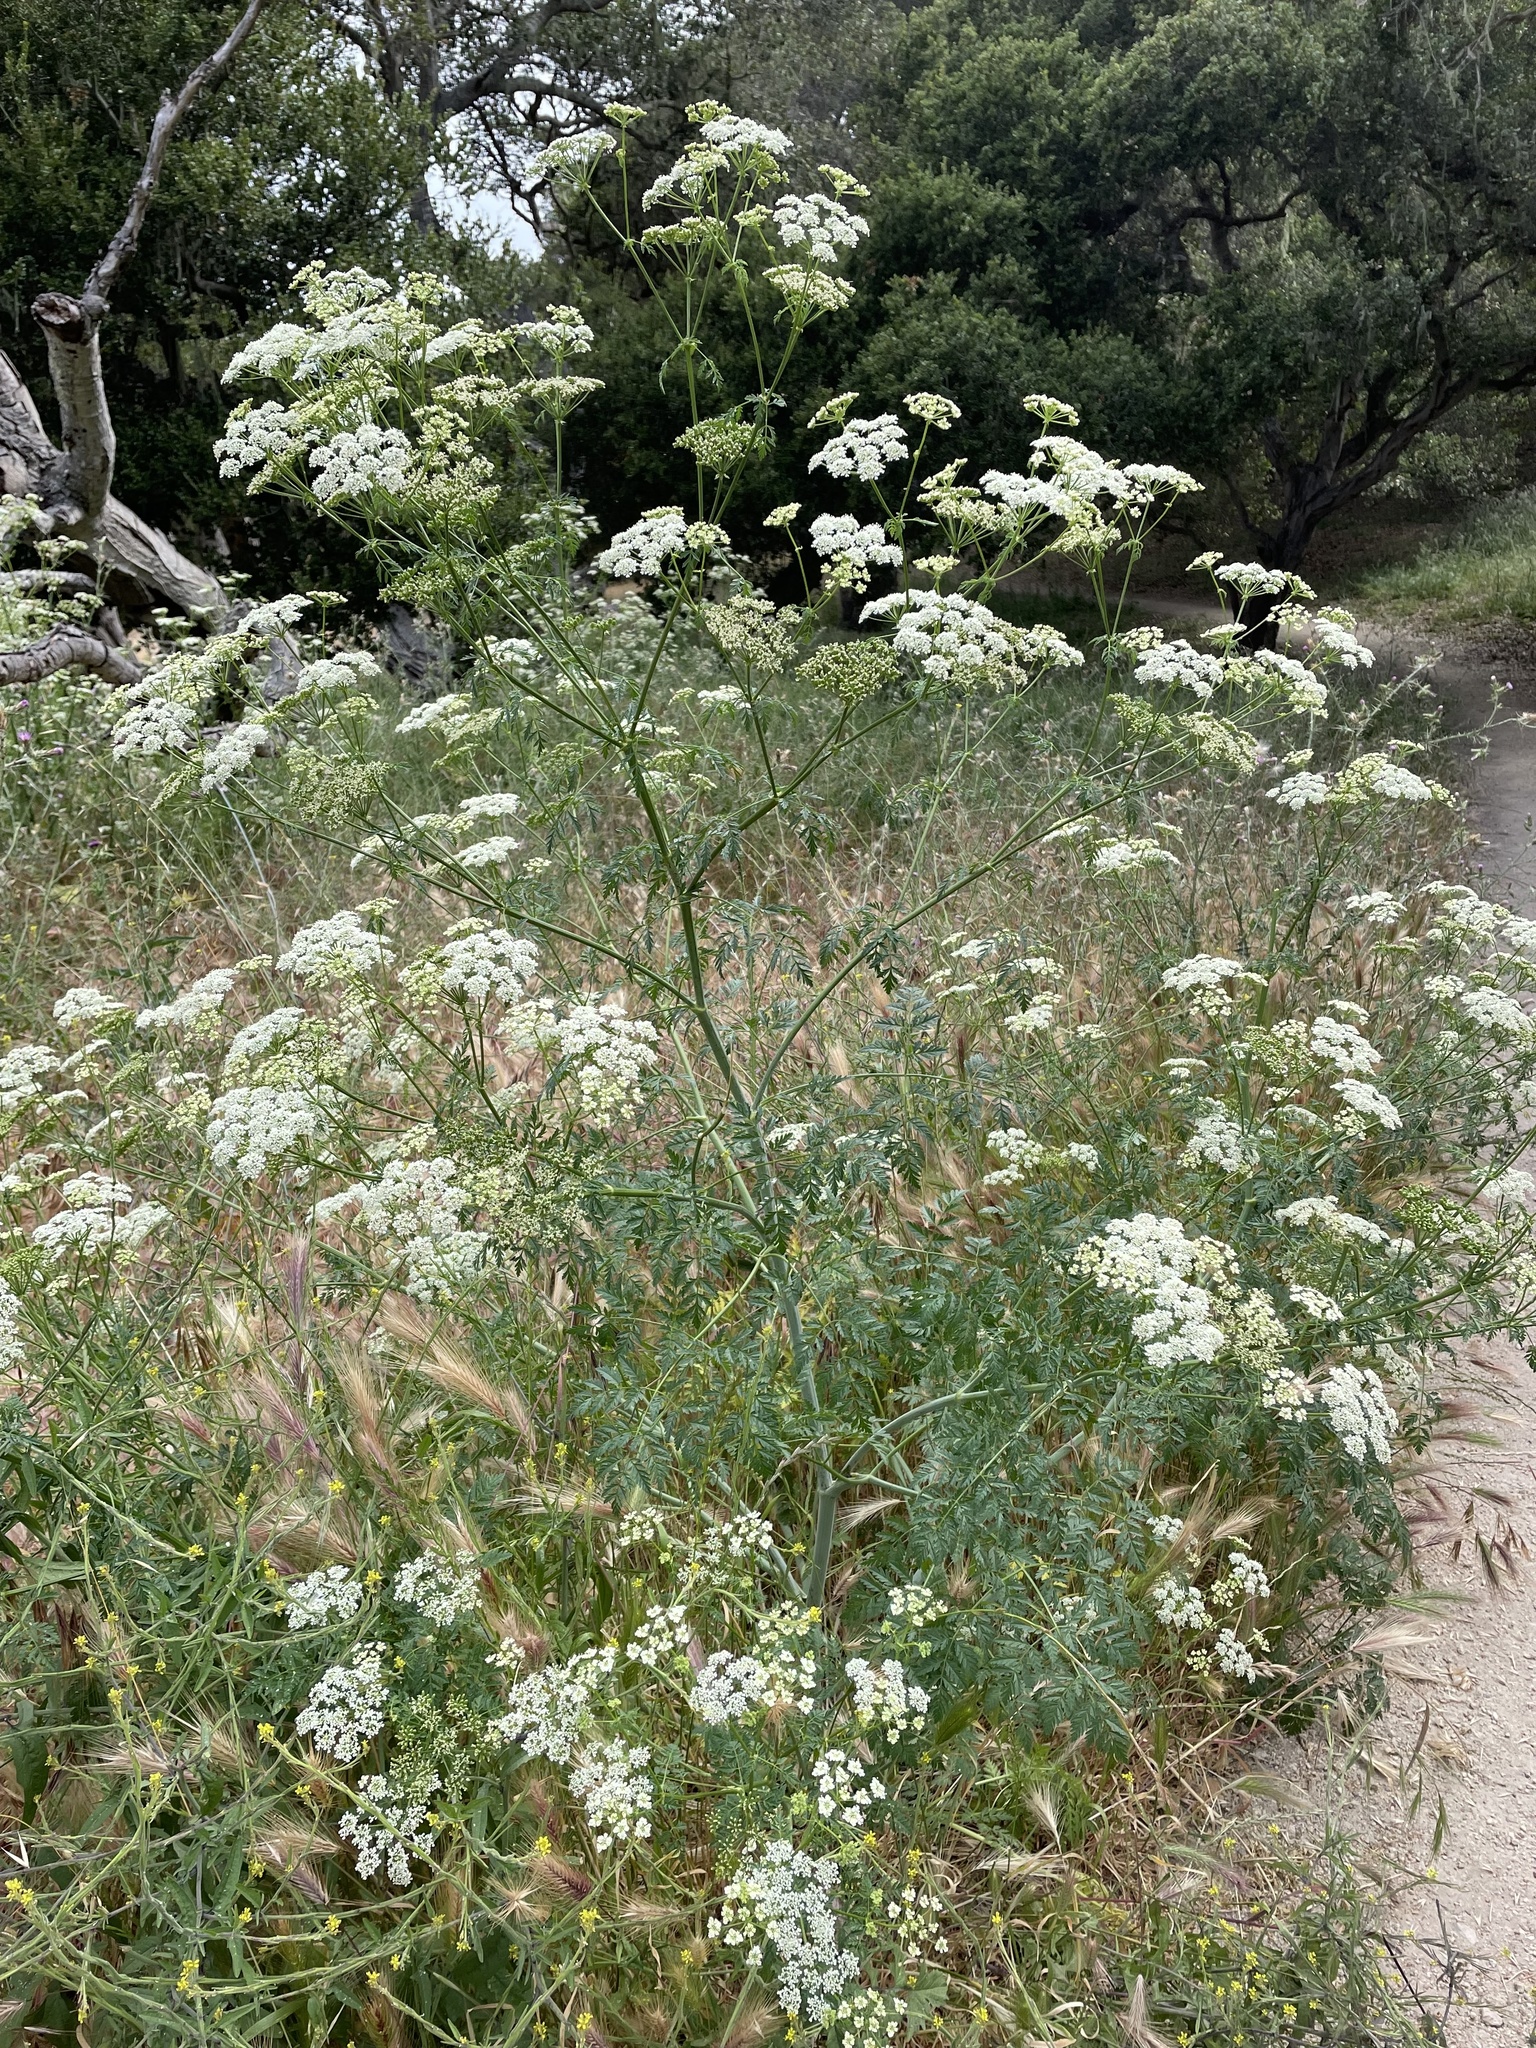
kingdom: Plantae
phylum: Tracheophyta
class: Magnoliopsida
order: Apiales
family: Apiaceae
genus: Conium
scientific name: Conium maculatum
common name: Hemlock
